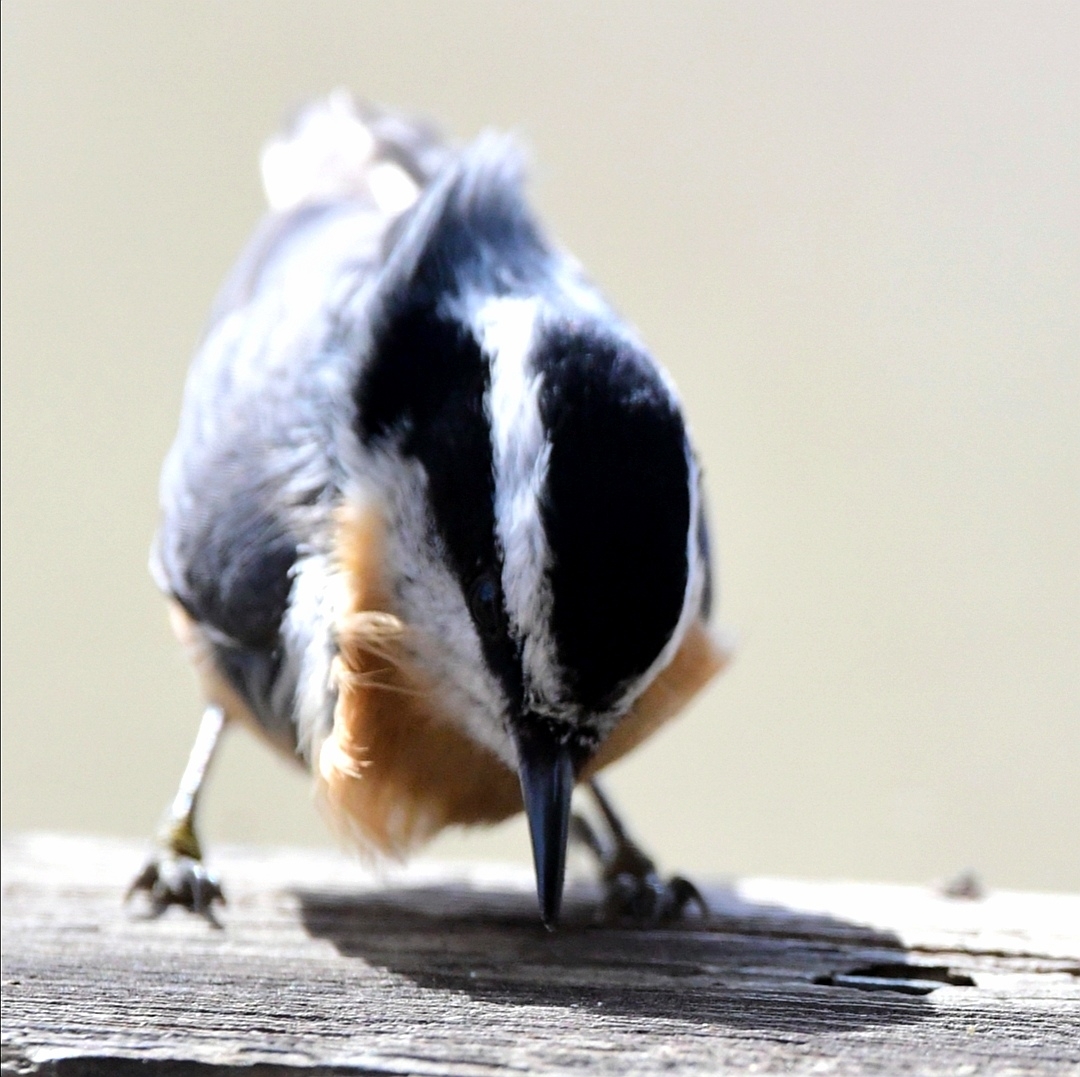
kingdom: Animalia
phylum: Chordata
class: Aves
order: Passeriformes
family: Sittidae
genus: Sitta
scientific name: Sitta canadensis
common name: Red-breasted nuthatch
